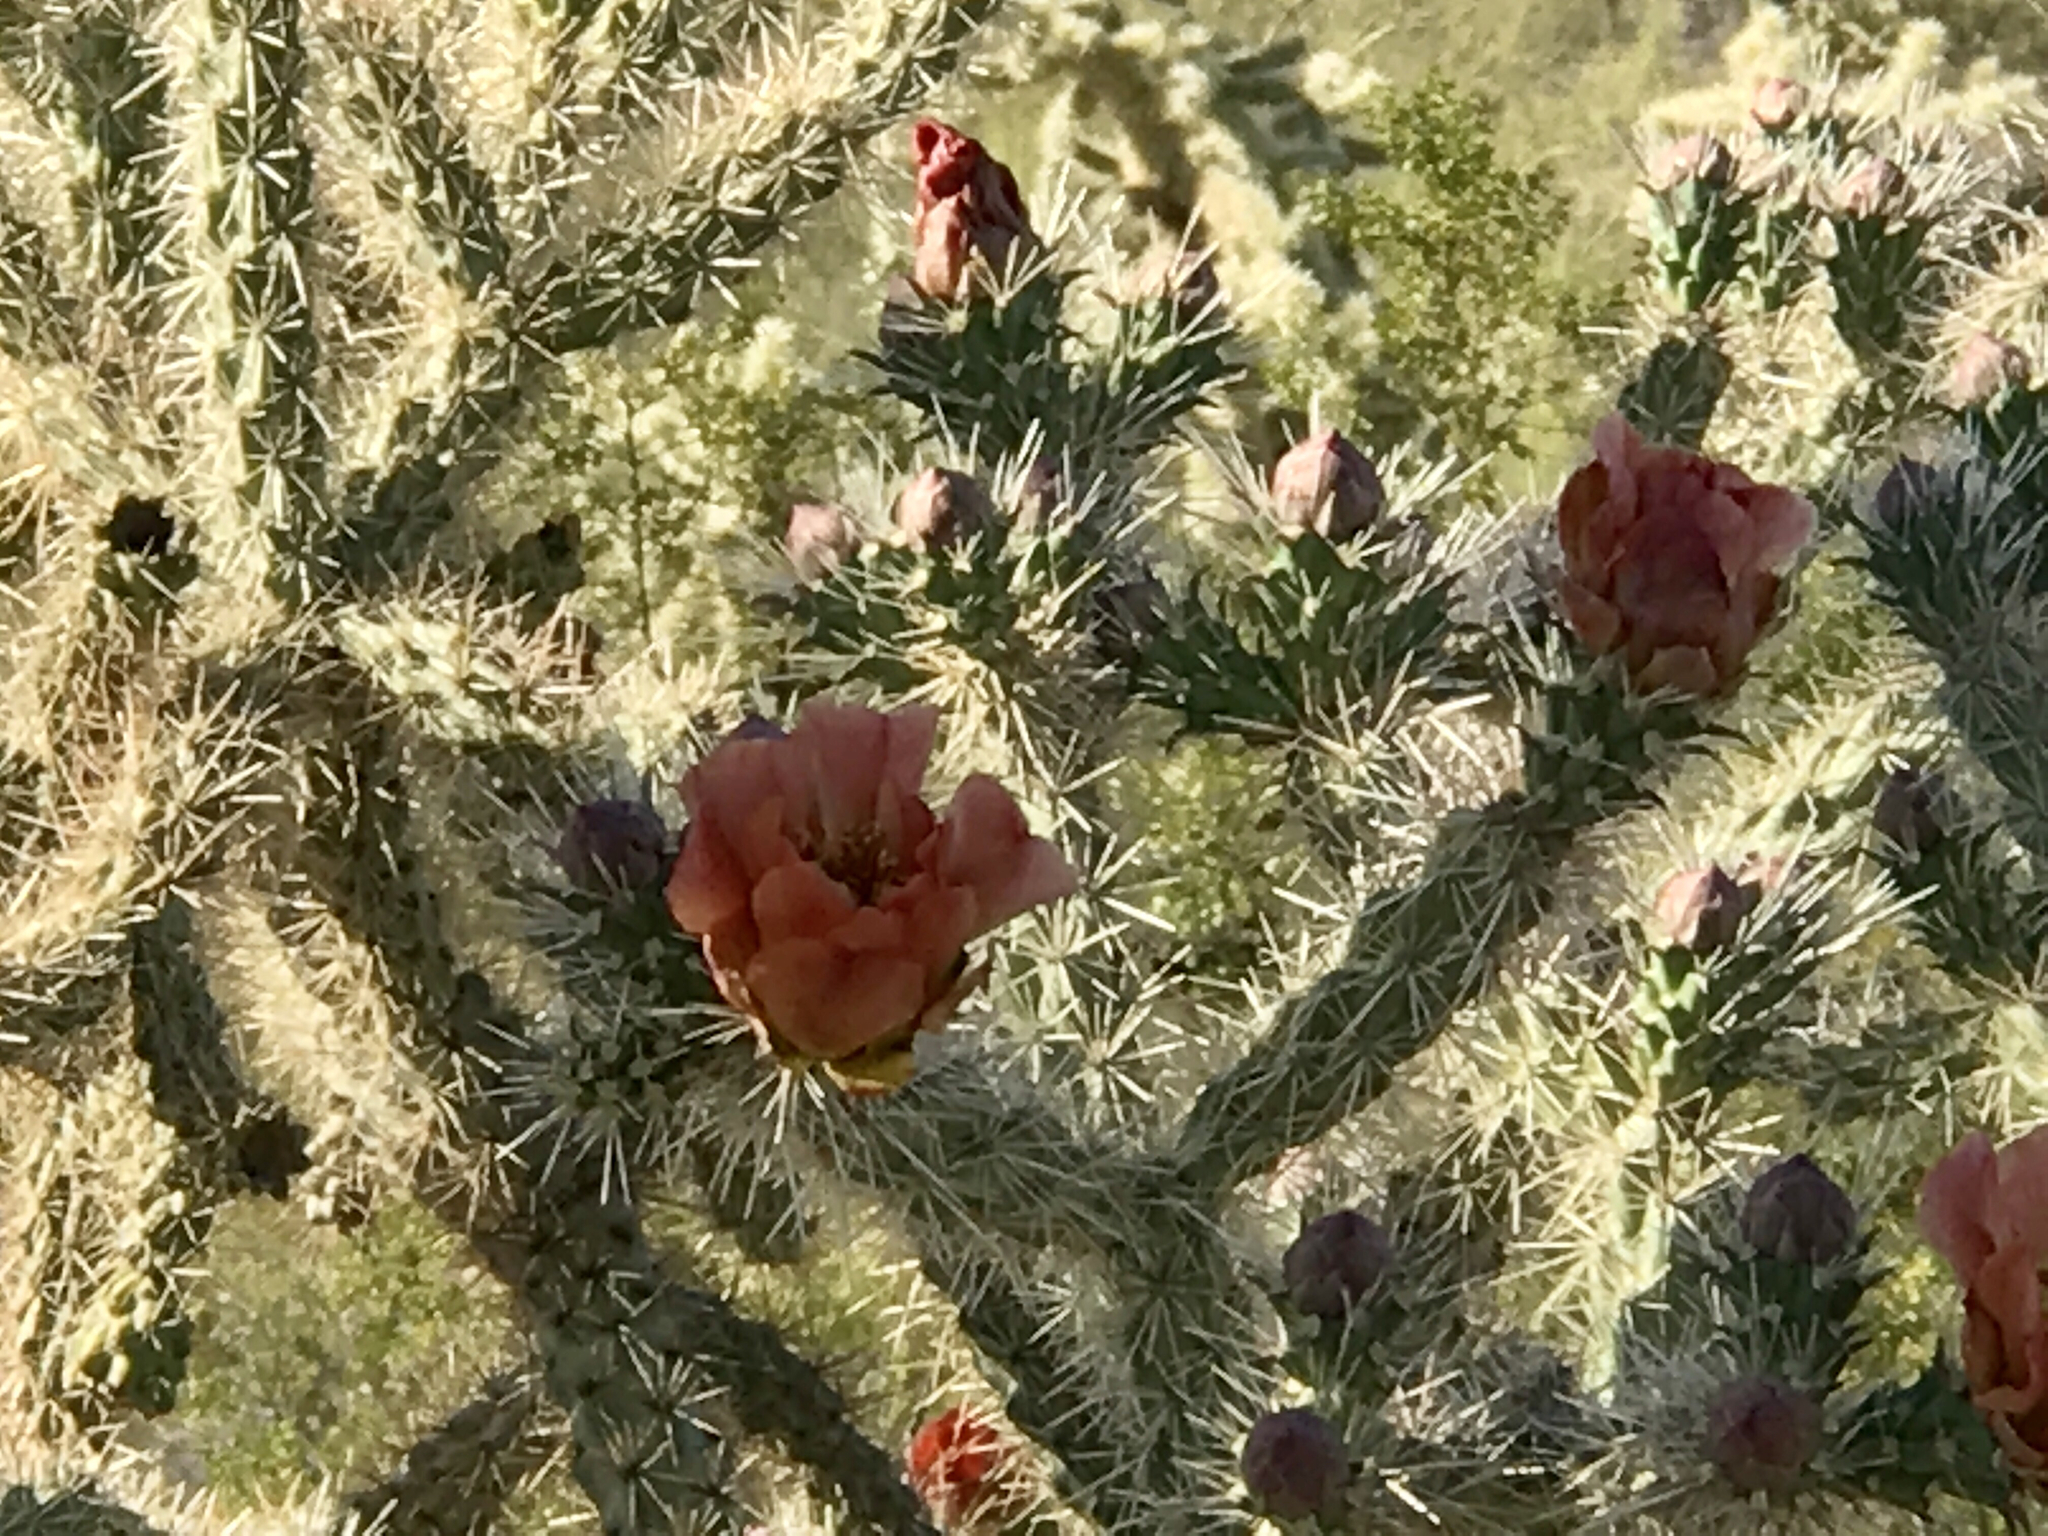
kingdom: Plantae
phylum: Tracheophyta
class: Magnoliopsida
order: Caryophyllales
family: Cactaceae
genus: Cylindropuntia
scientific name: Cylindropuntia acanthocarpa
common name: Buckhorn cholla
